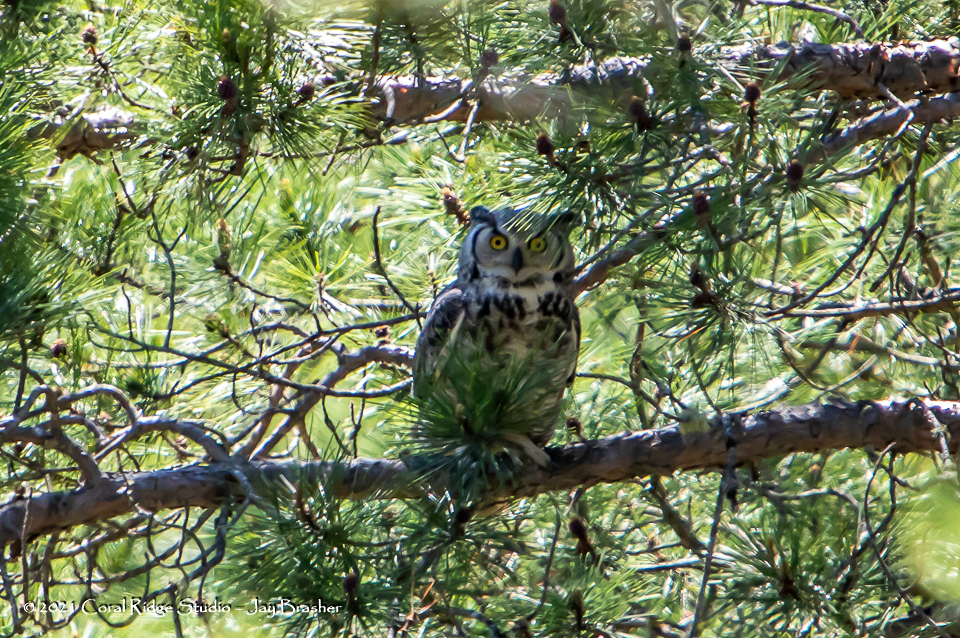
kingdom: Animalia
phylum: Chordata
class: Aves
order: Strigiformes
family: Strigidae
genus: Bubo
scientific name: Bubo virginianus
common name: Great horned owl
